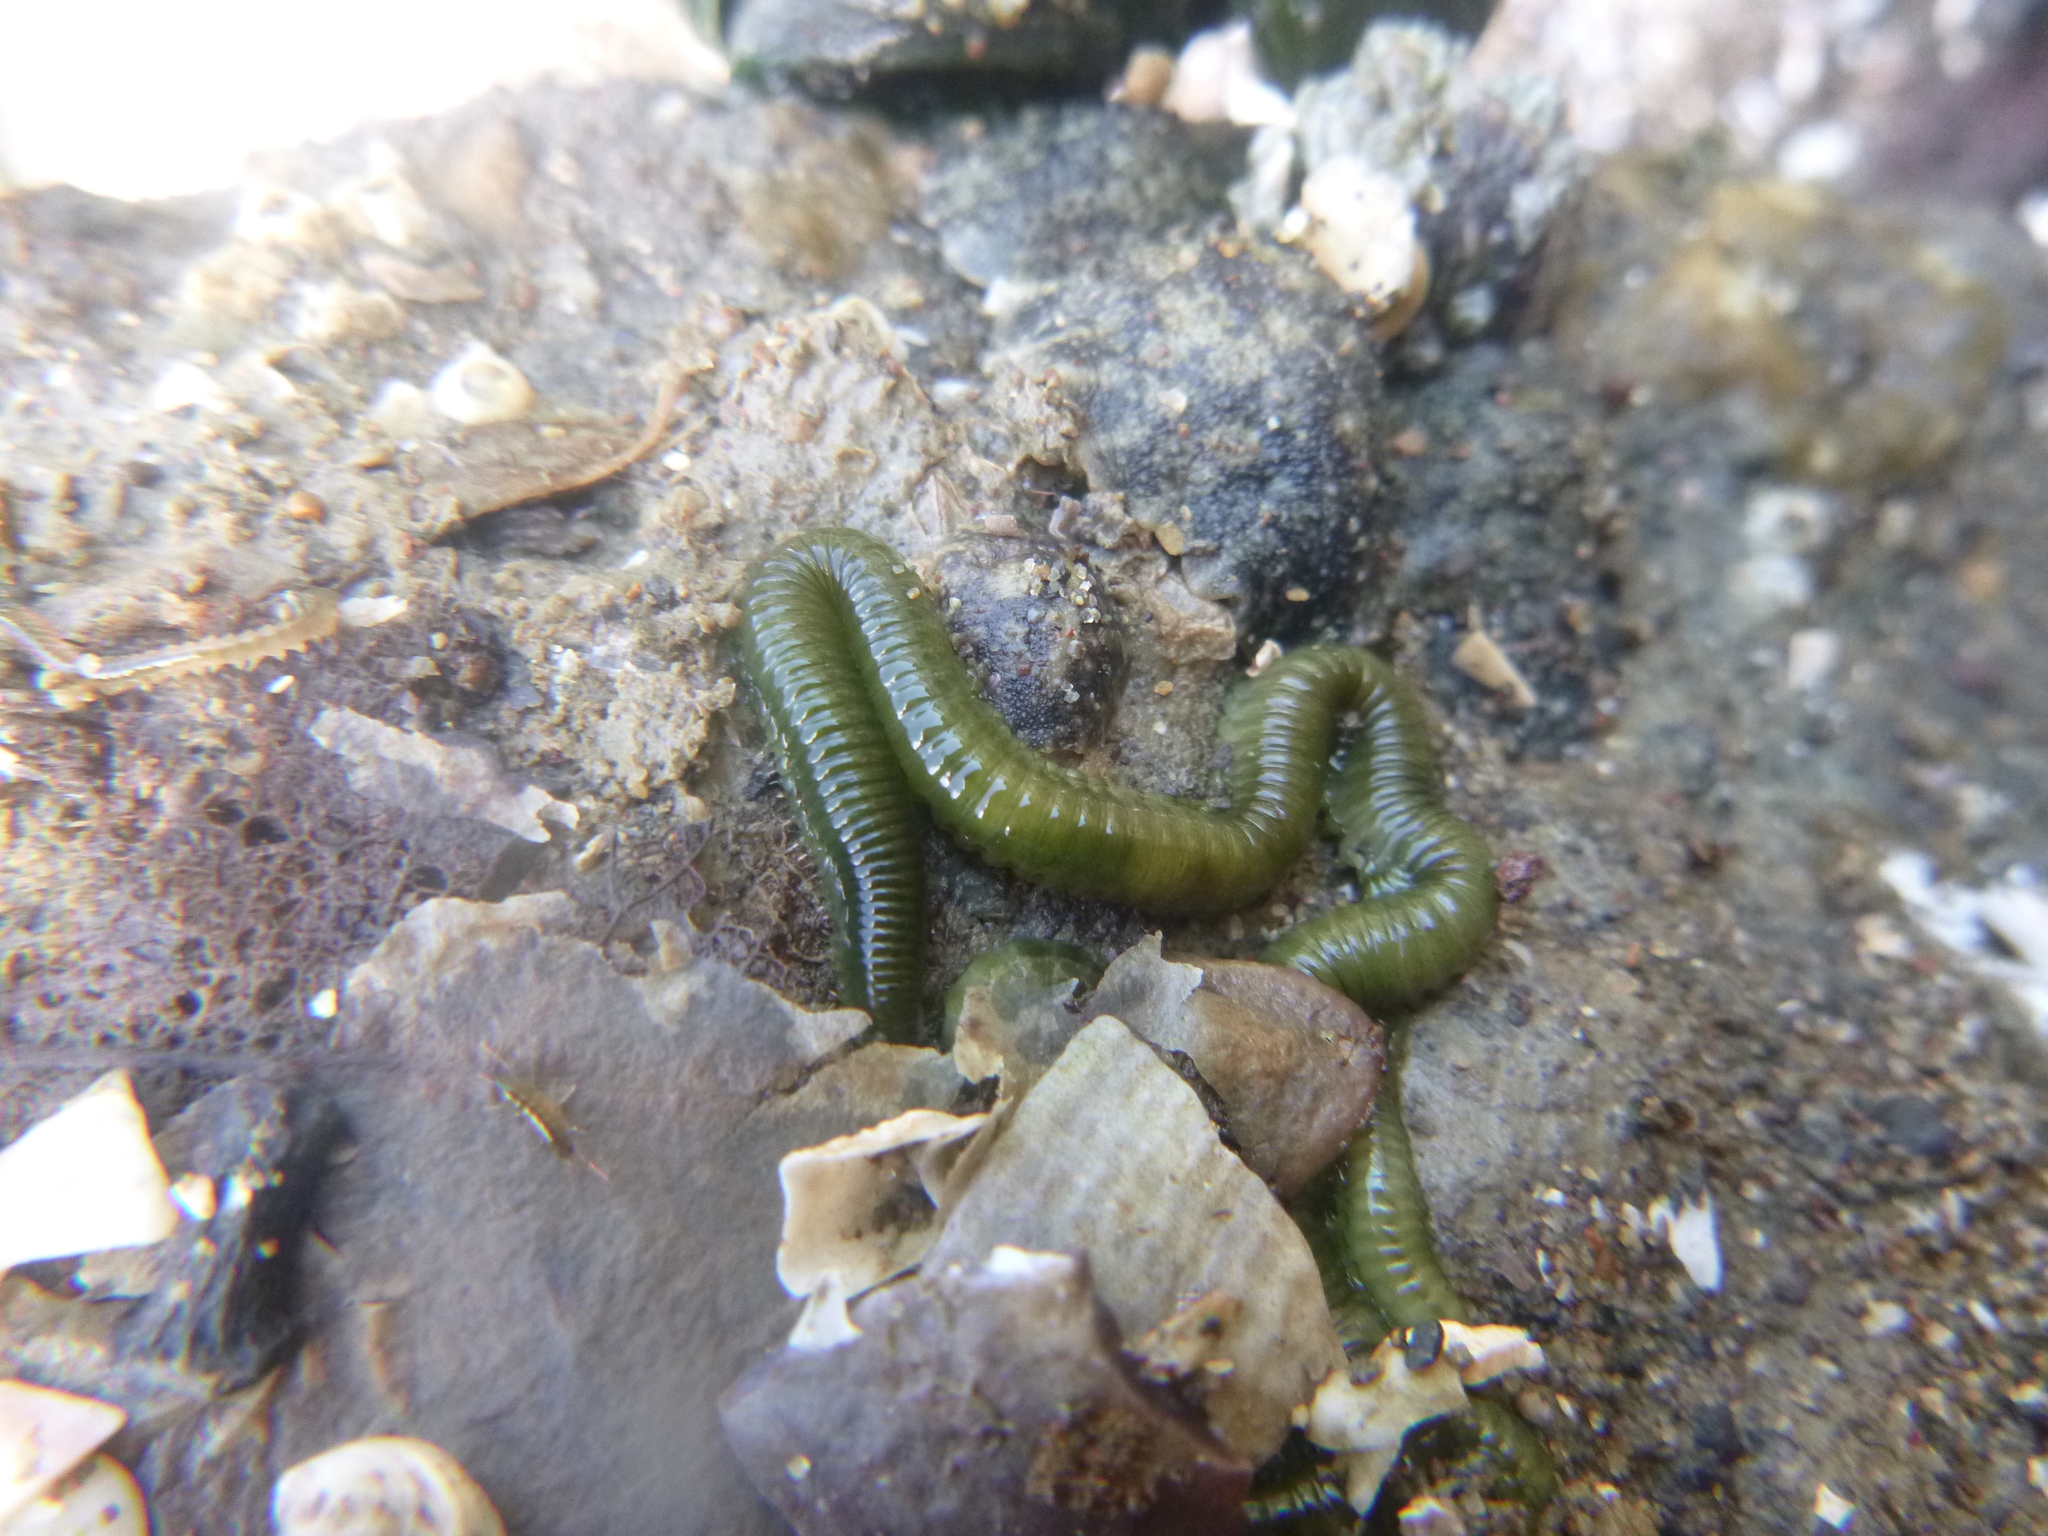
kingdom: Animalia
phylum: Annelida
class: Polychaeta
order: Phyllodocida
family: Phyllodocidae
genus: Eulalia
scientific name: Eulalia microphylla
